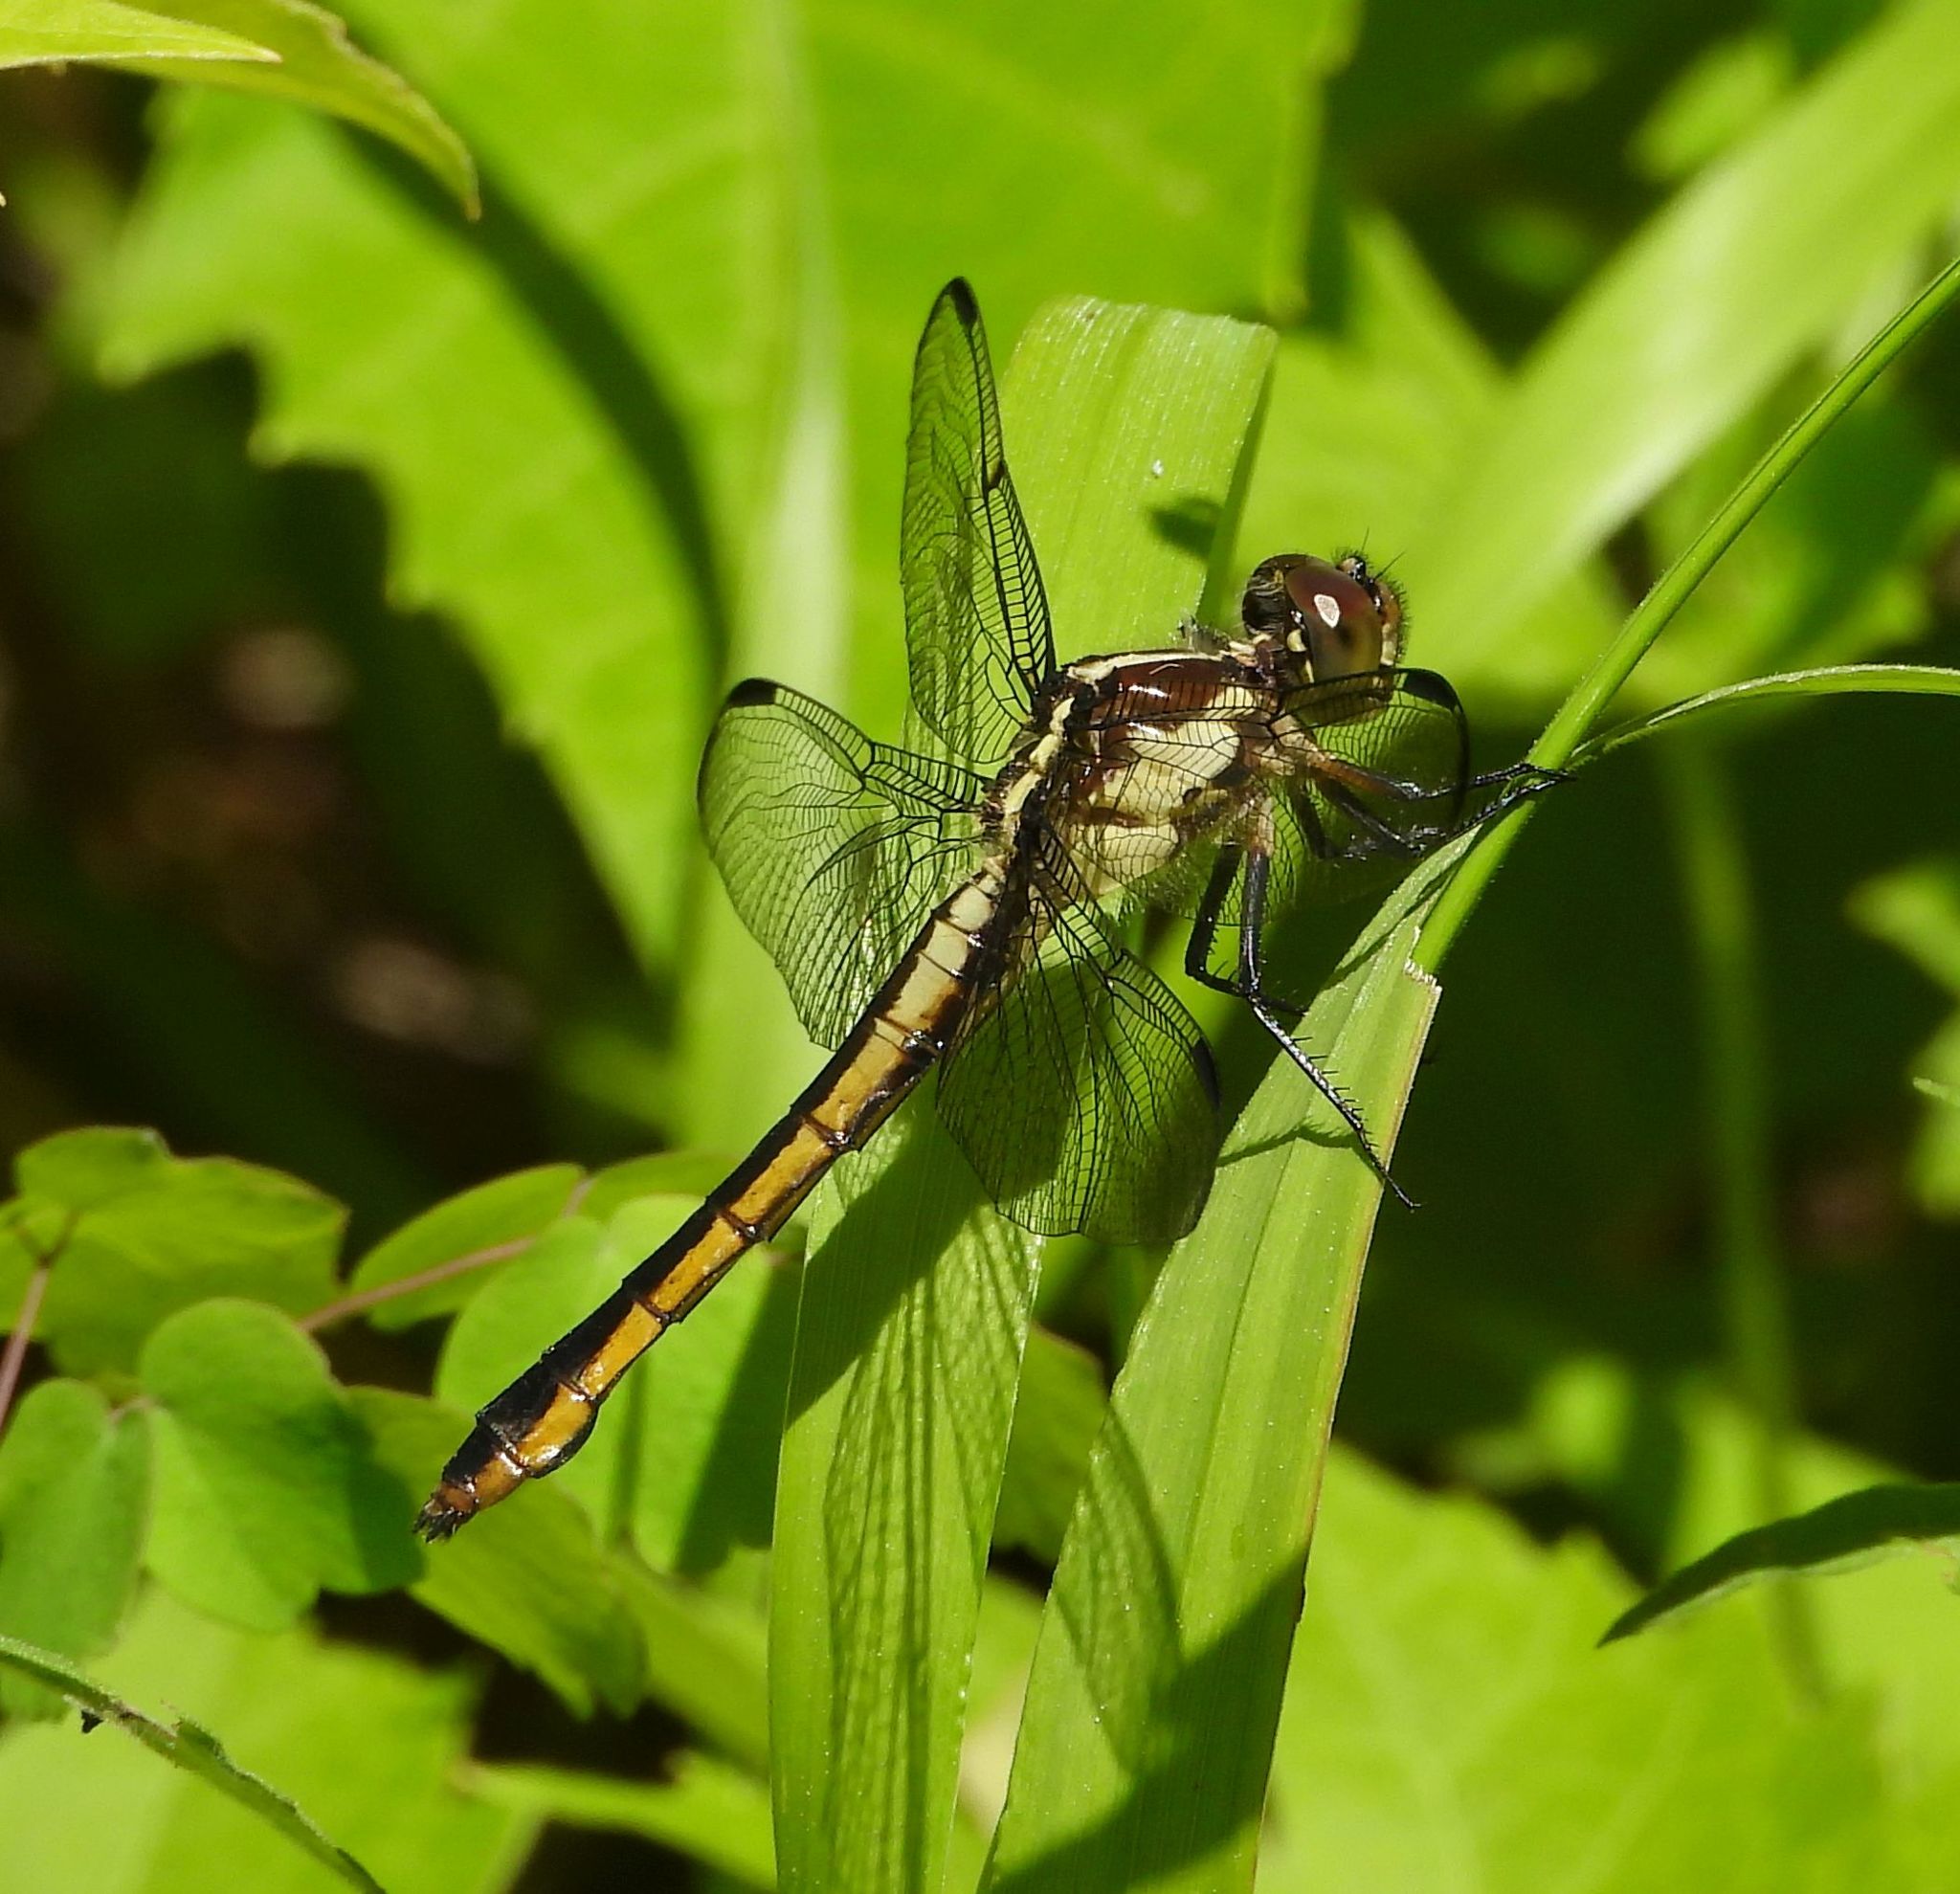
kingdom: Animalia
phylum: Arthropoda
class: Insecta
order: Odonata
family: Libellulidae
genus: Libellula
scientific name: Libellula incesta
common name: Slaty skimmer
